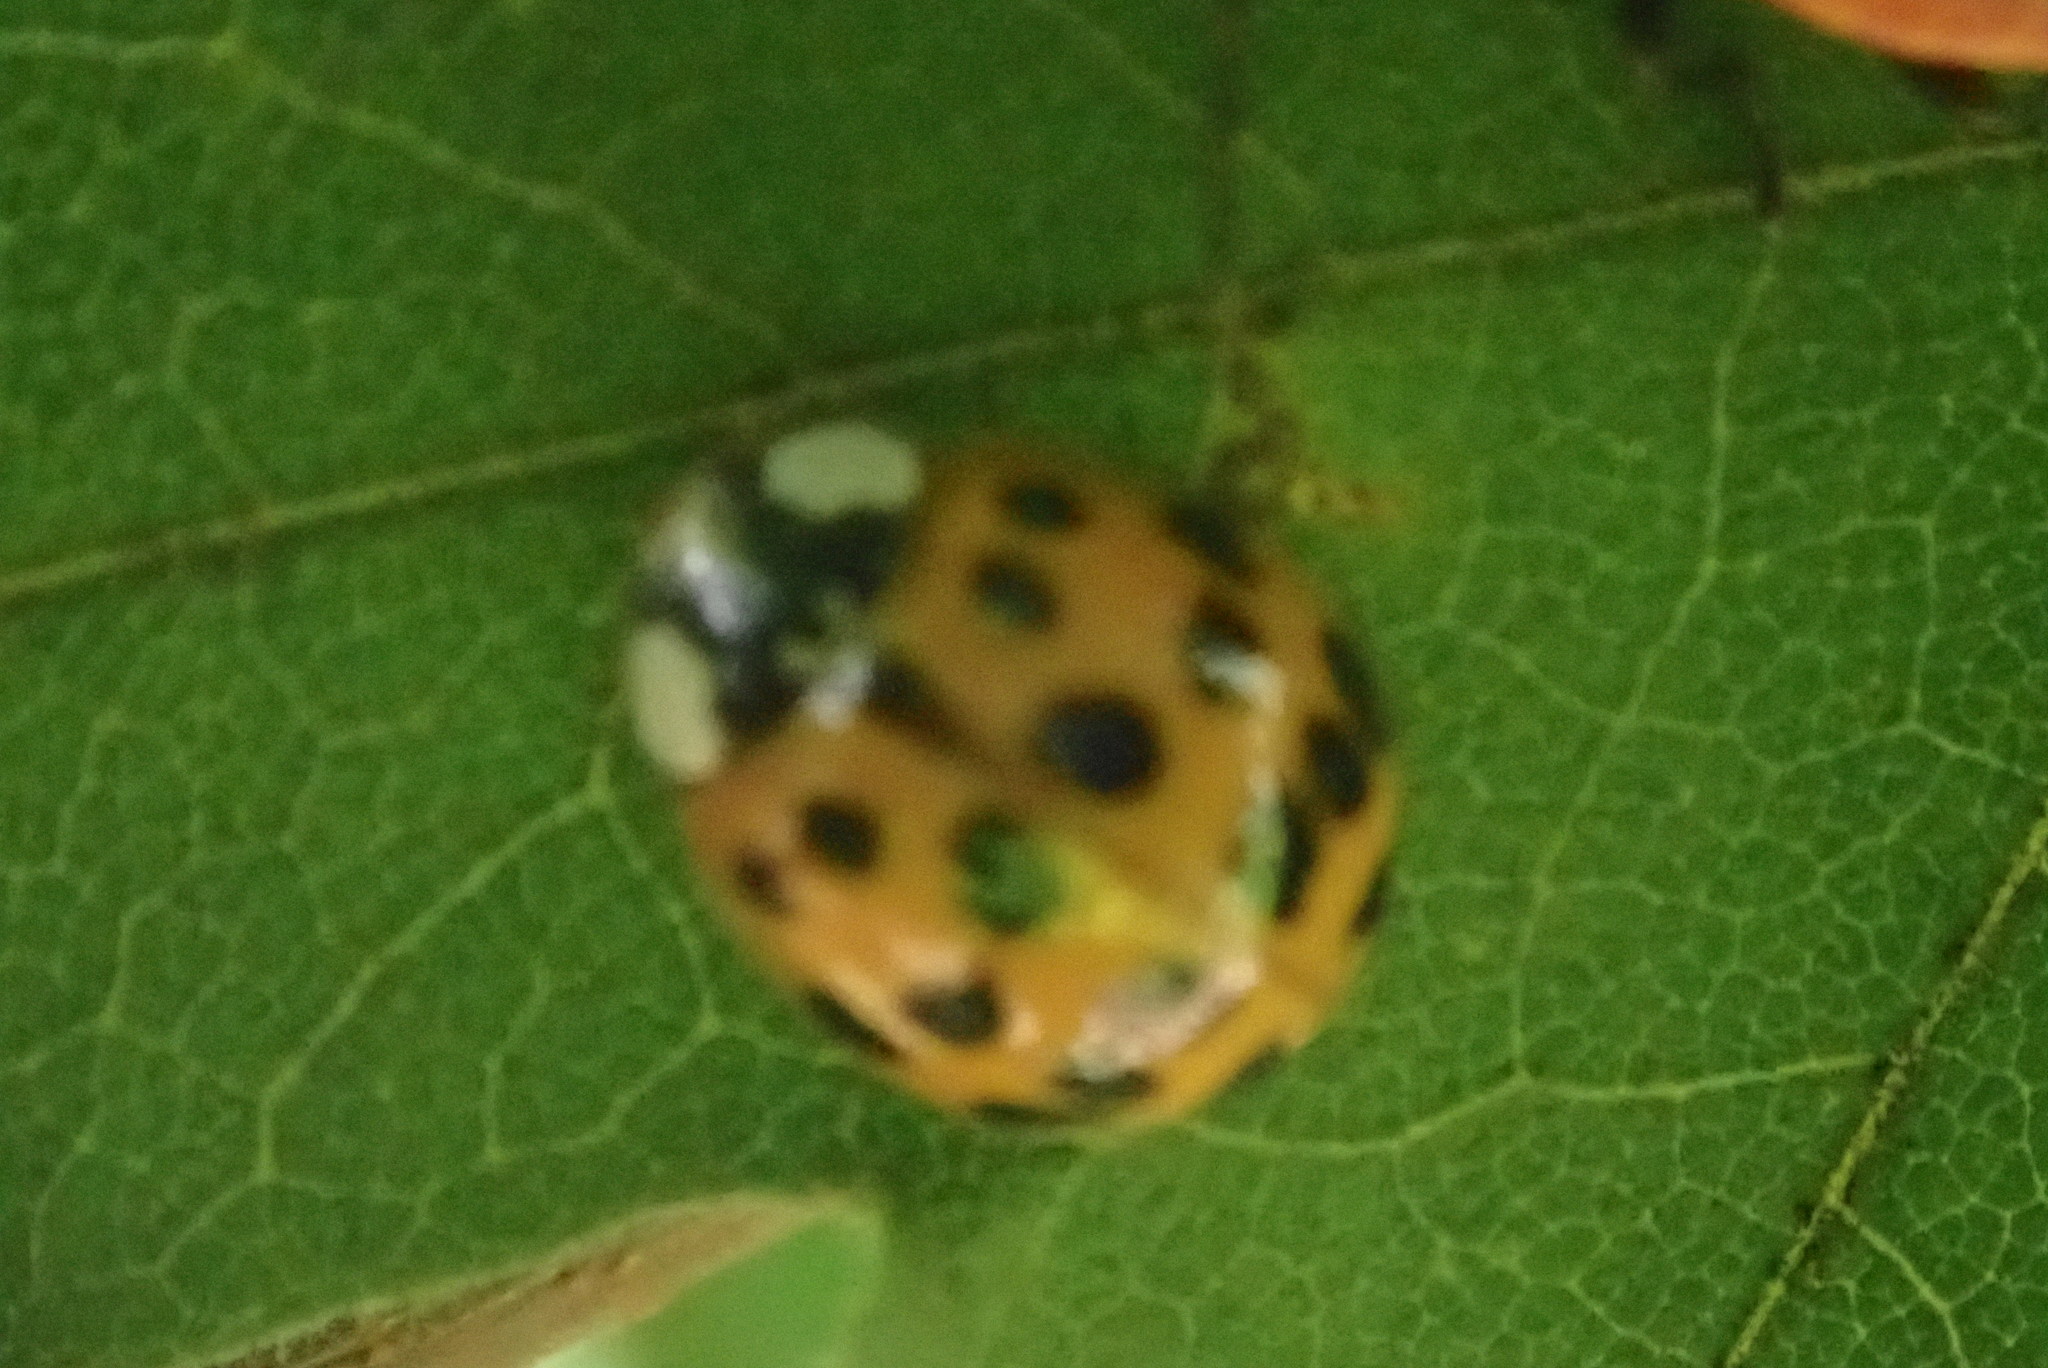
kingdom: Animalia
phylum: Arthropoda
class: Insecta
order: Coleoptera
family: Coccinellidae
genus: Harmonia
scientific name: Harmonia axyridis
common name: Harlequin ladybird
